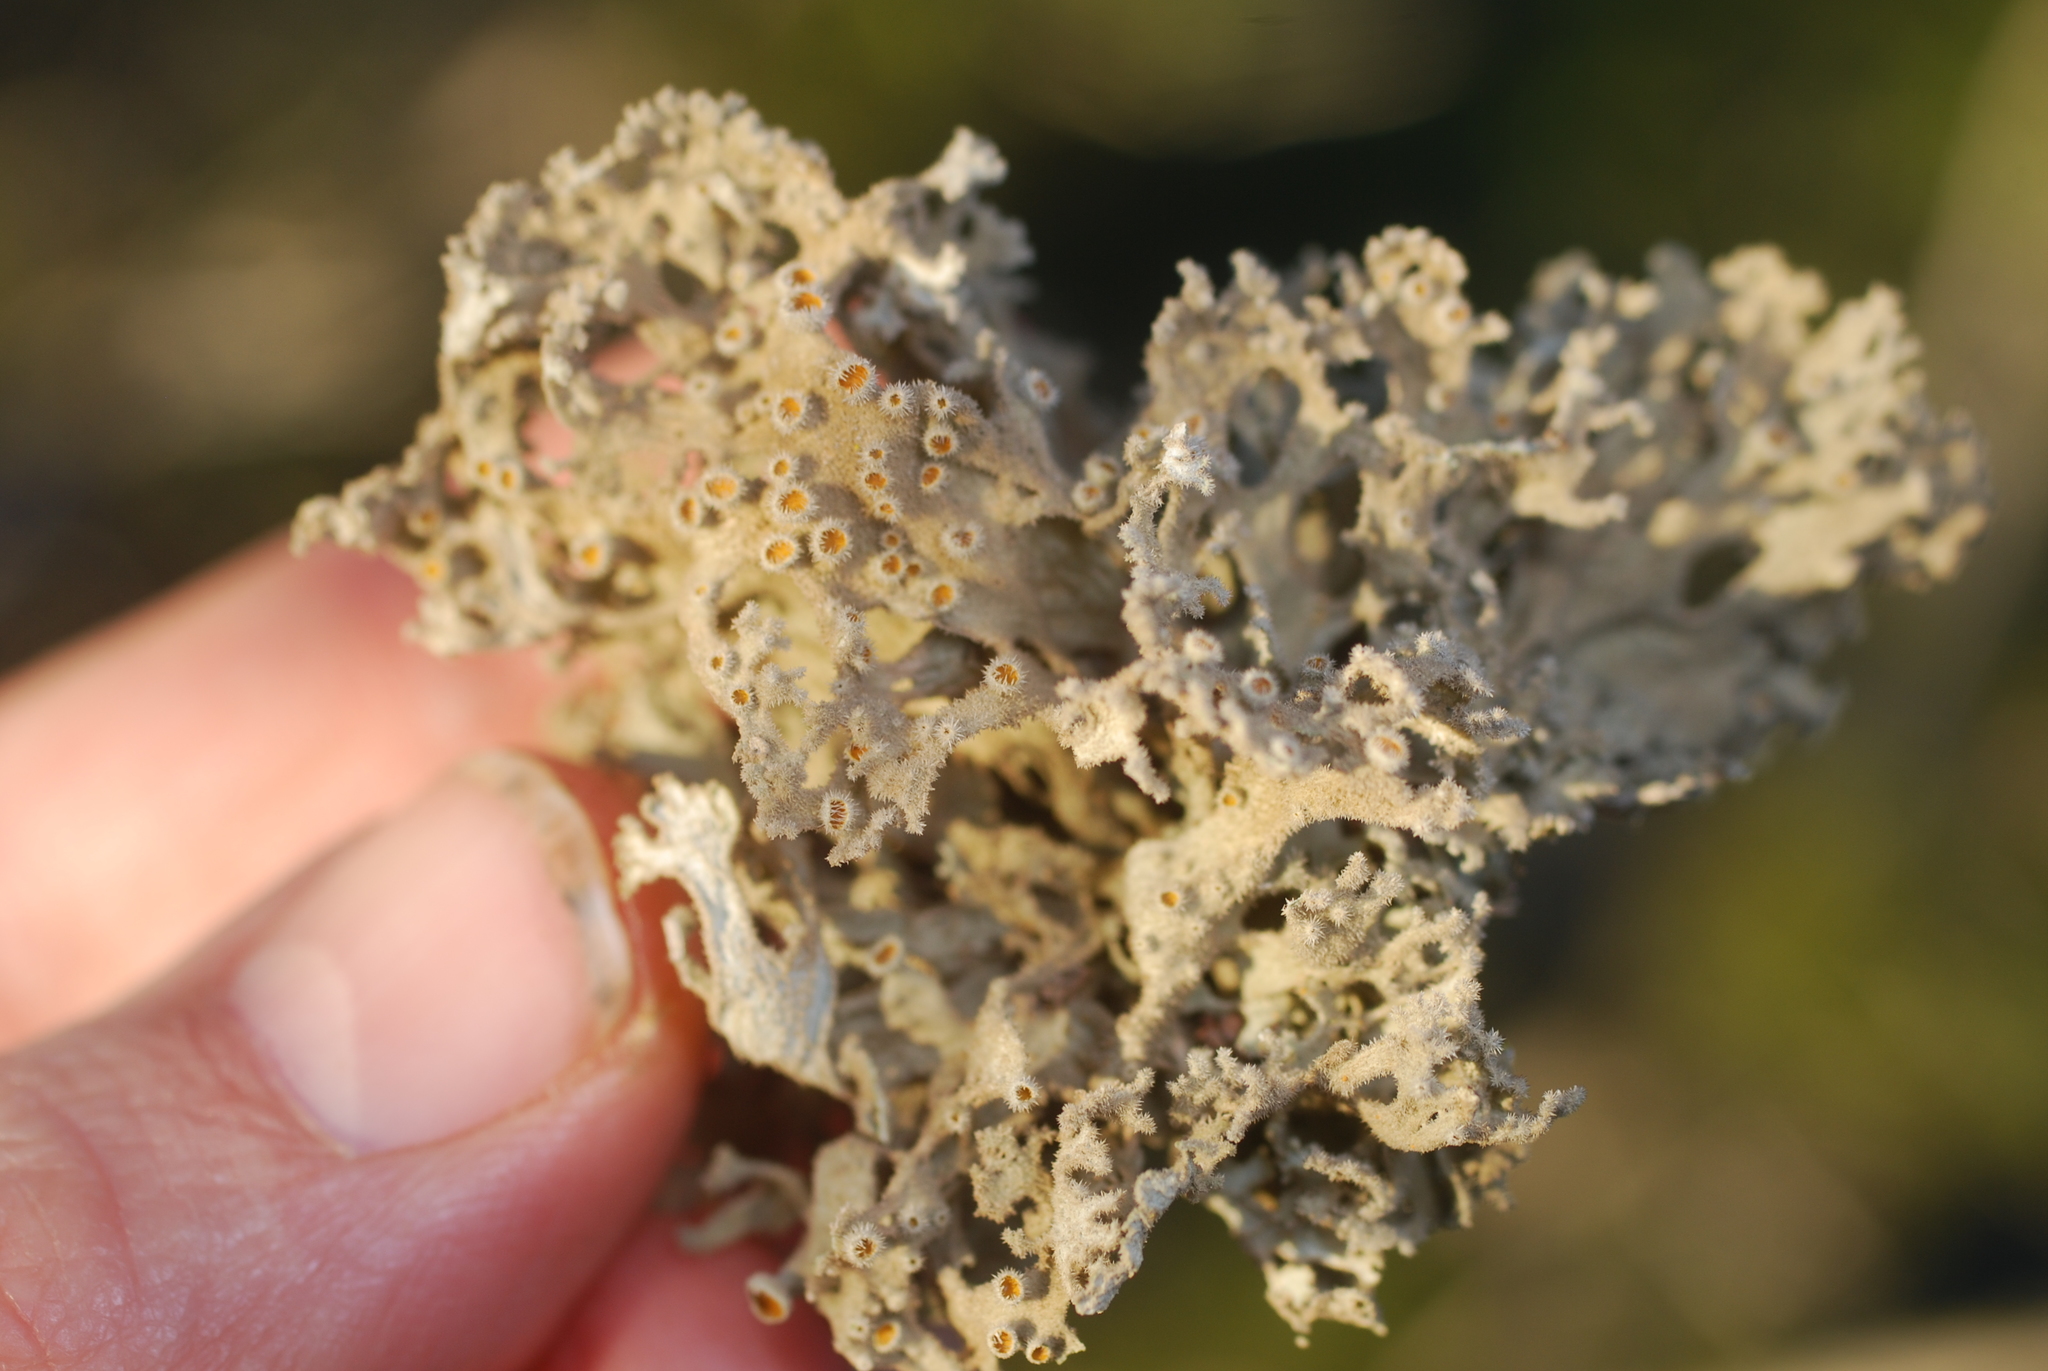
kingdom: Fungi
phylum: Ascomycota
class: Lecanoromycetes
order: Teloschistales
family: Teloschistaceae
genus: Seirophora
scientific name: Seirophora villosa
